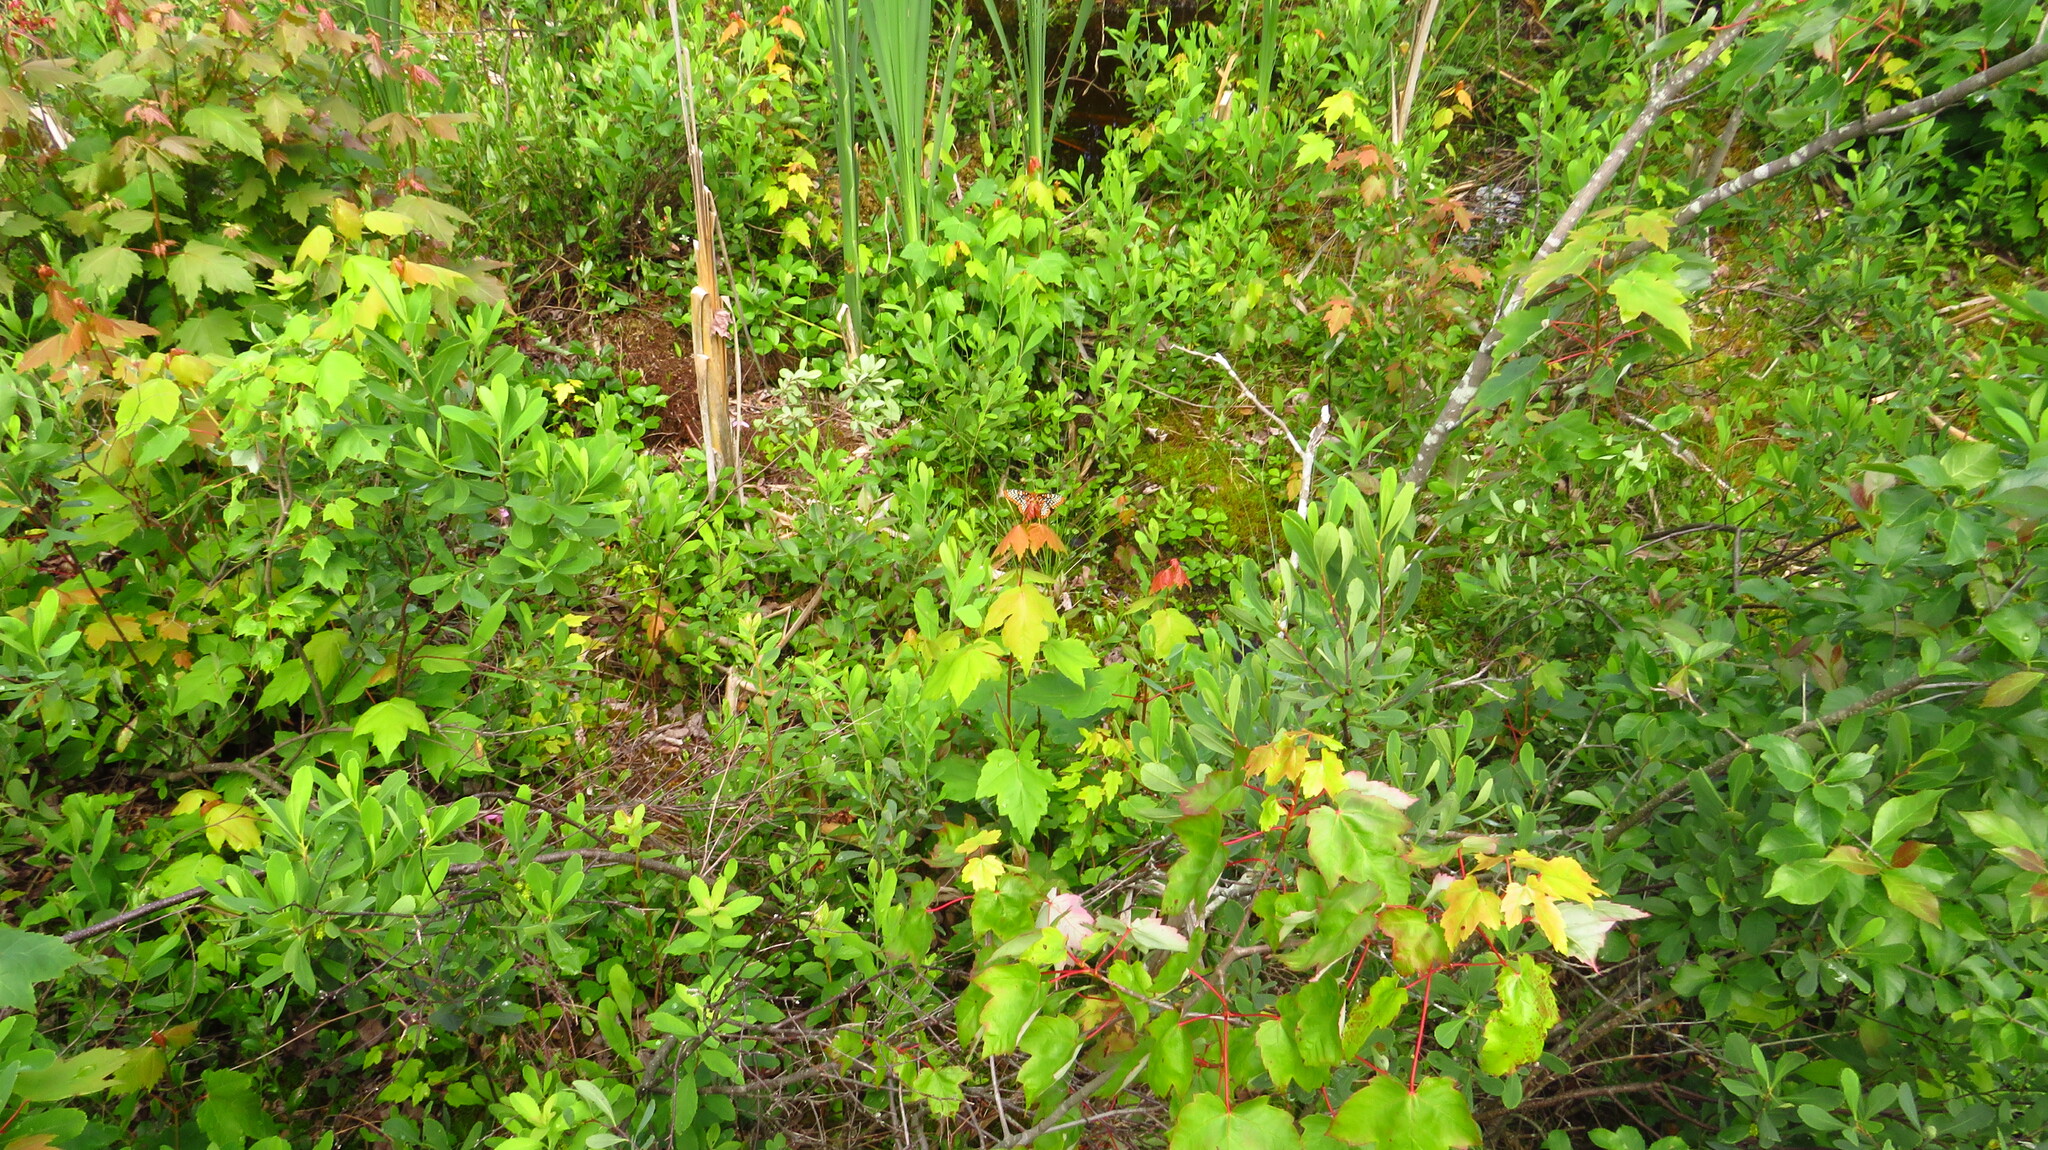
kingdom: Plantae
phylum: Tracheophyta
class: Magnoliopsida
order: Sapindales
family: Sapindaceae
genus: Acer
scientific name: Acer rubrum
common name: Red maple
